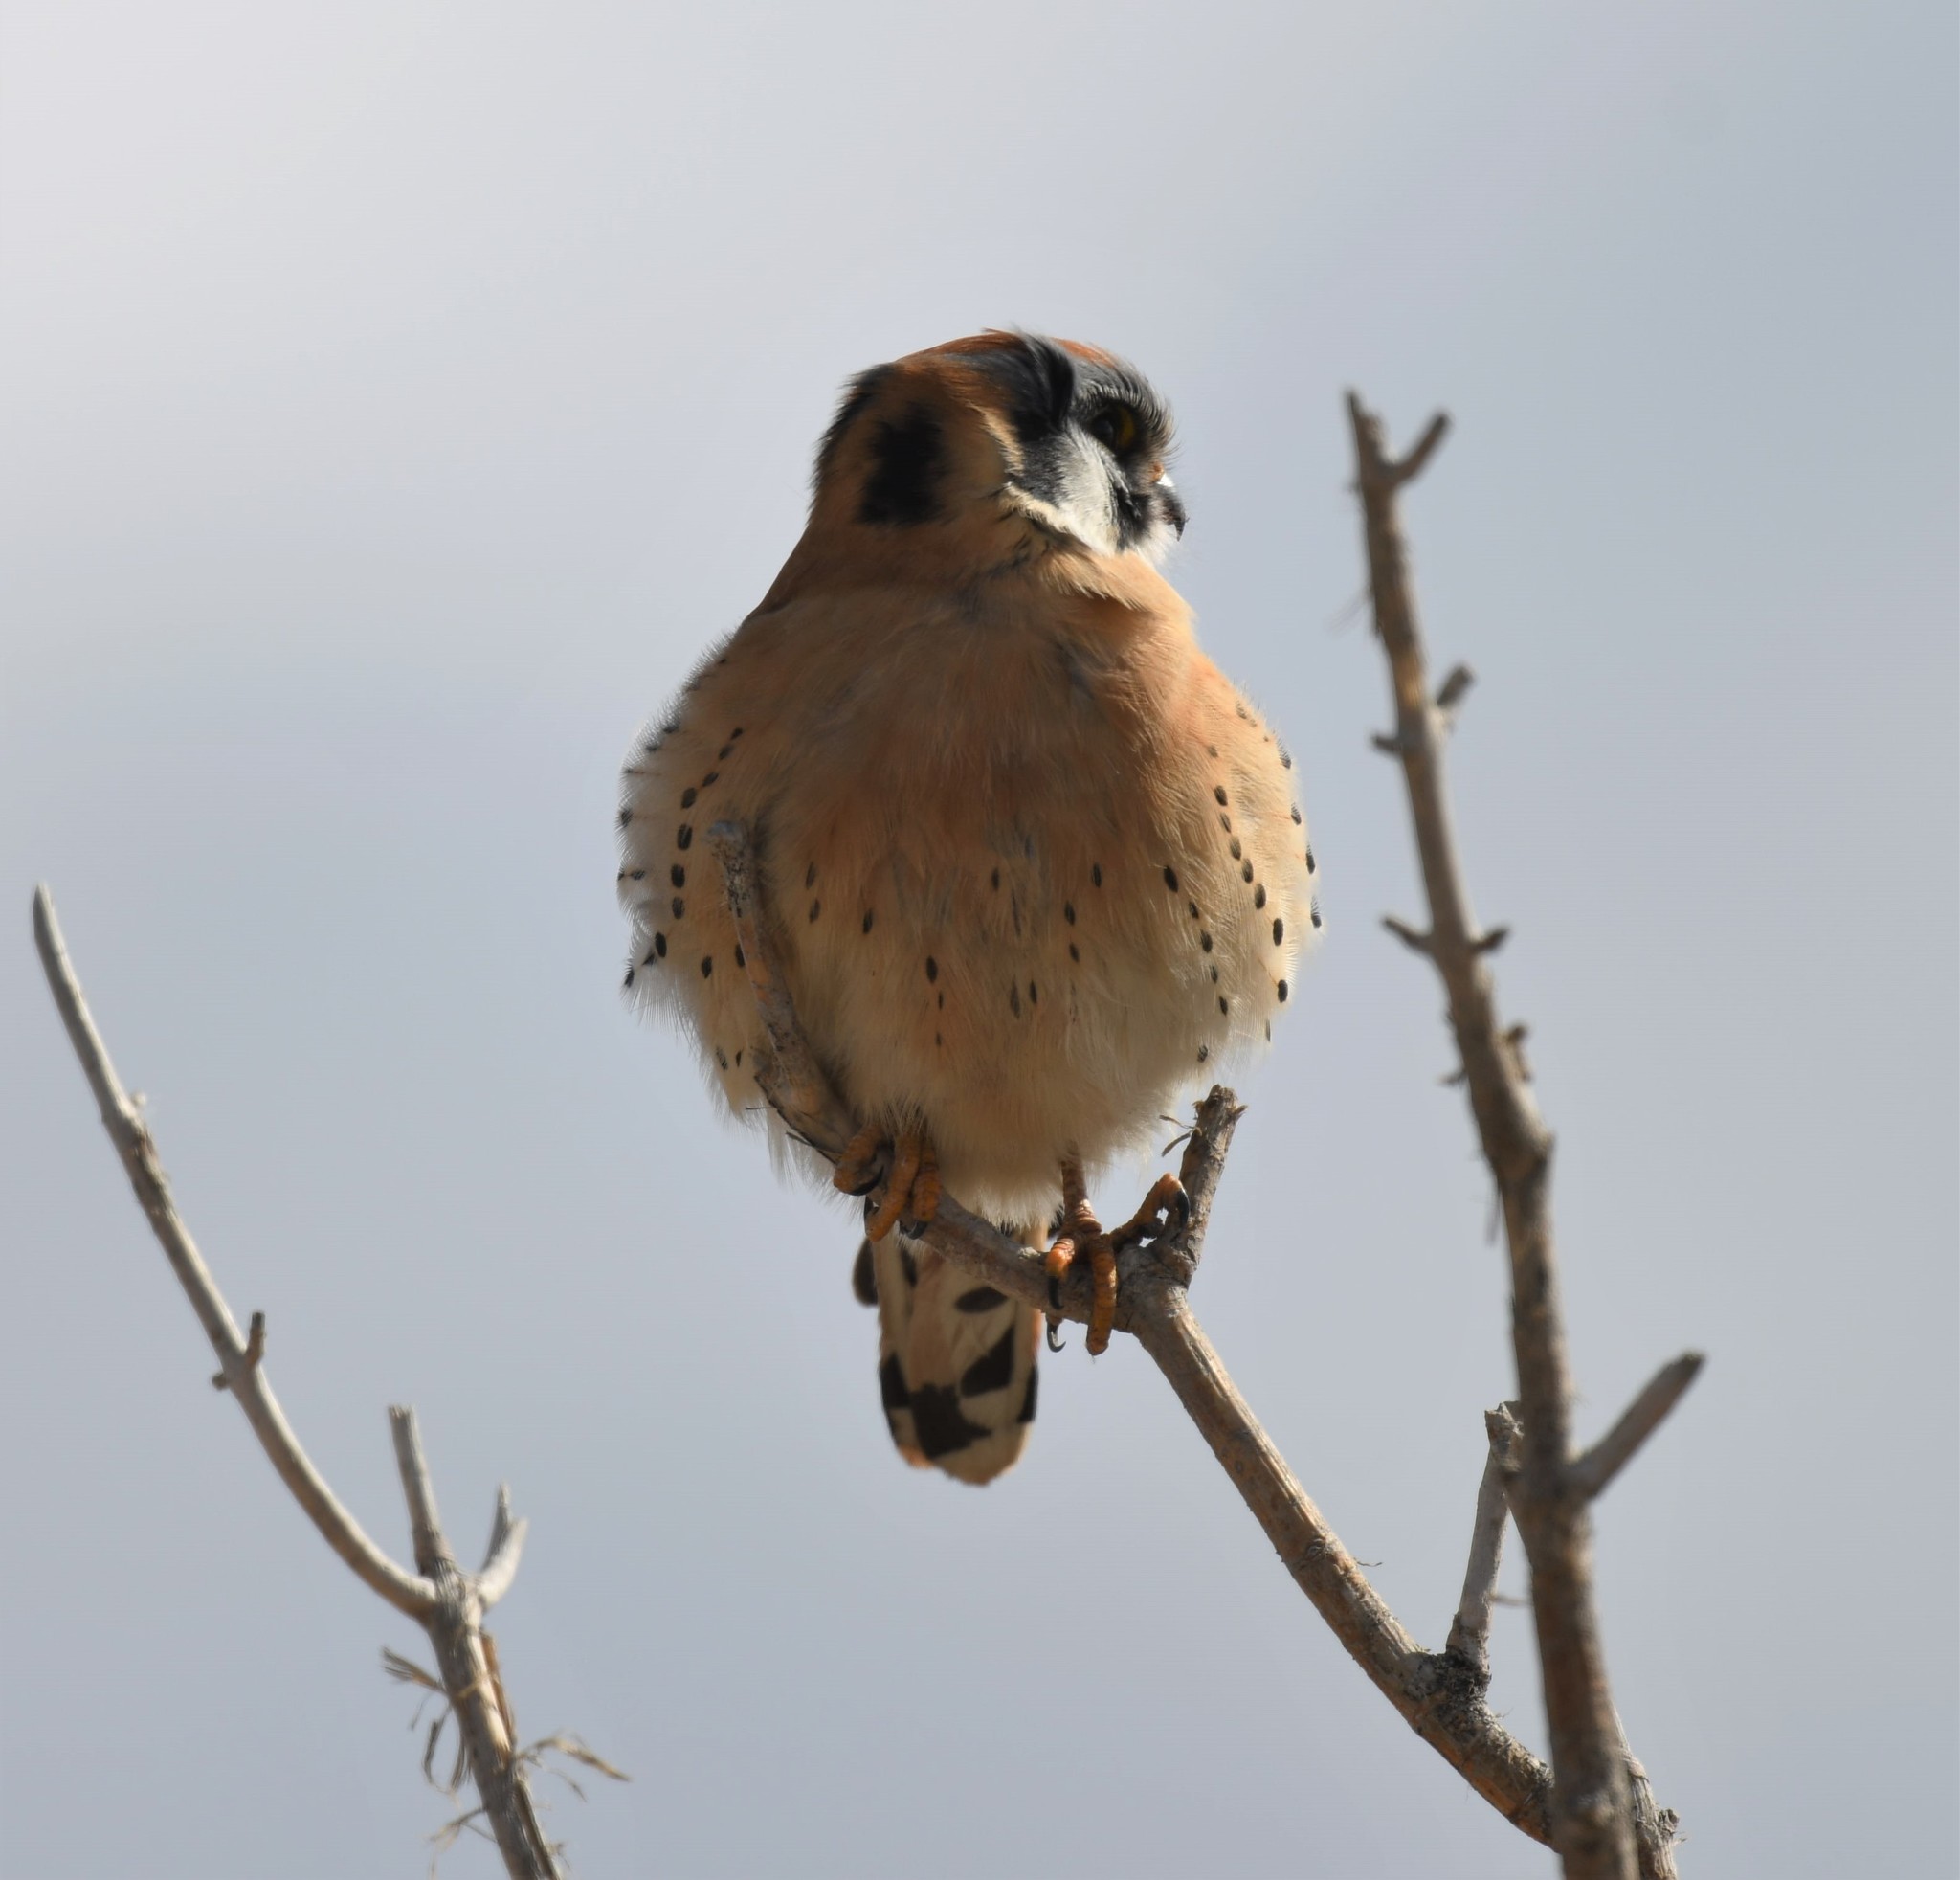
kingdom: Animalia
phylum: Chordata
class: Aves
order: Falconiformes
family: Falconidae
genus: Falco
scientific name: Falco sparverius
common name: American kestrel
